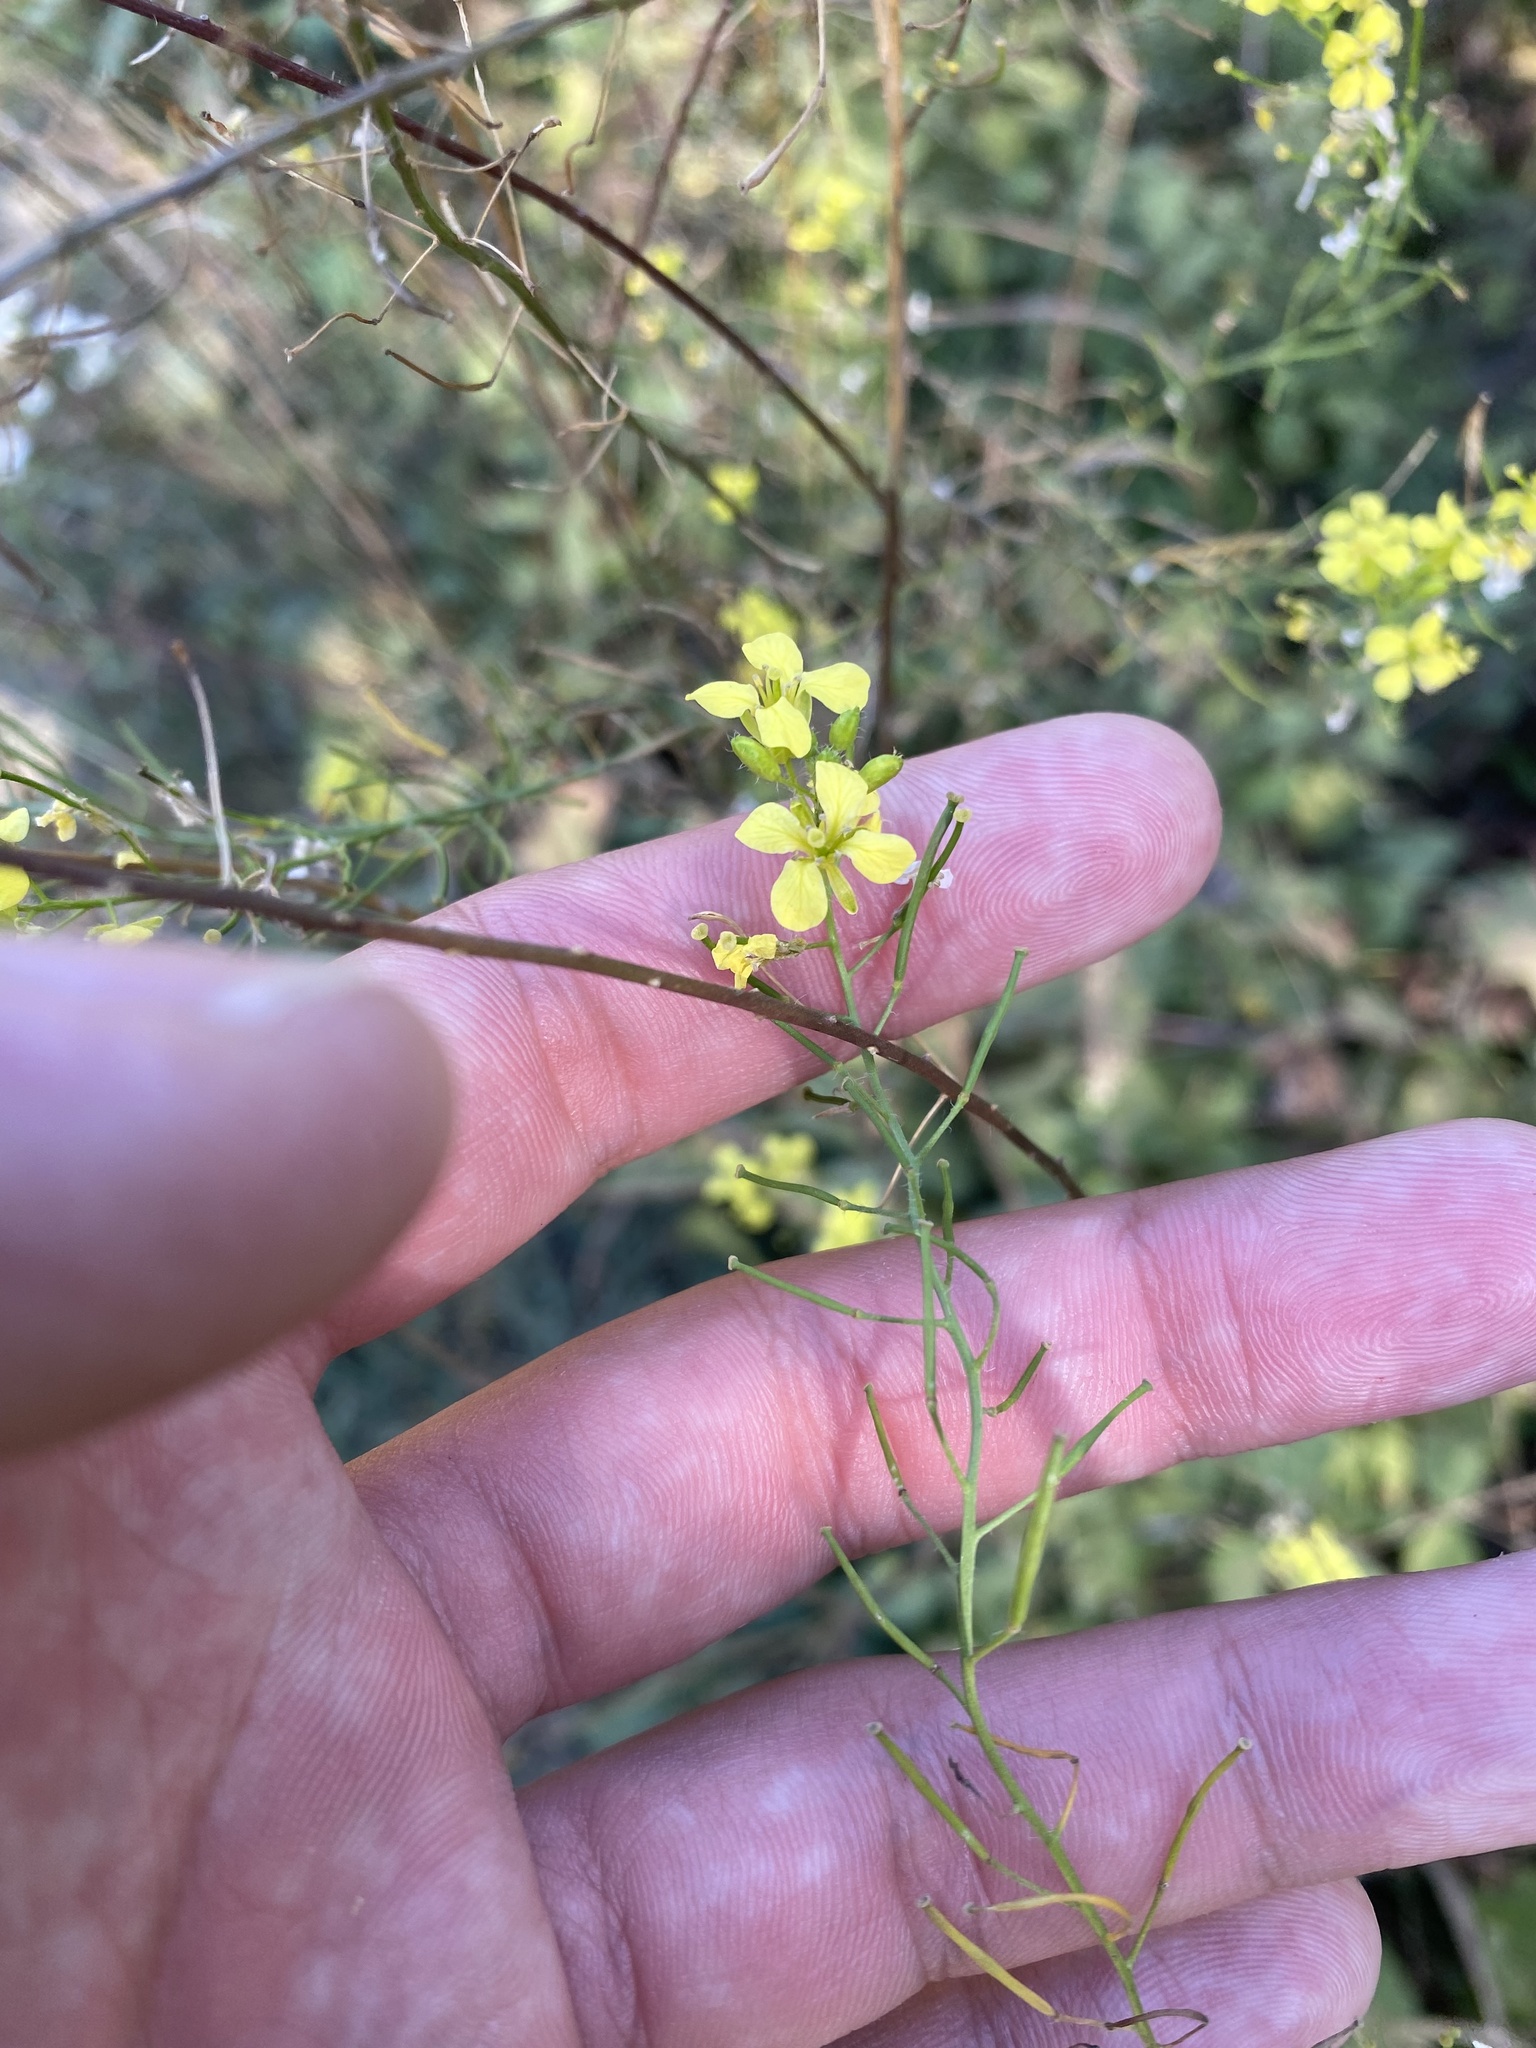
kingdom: Plantae
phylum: Tracheophyta
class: Magnoliopsida
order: Brassicales
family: Brassicaceae
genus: Sisymbrium
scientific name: Sisymbrium loeselii
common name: False london-rocket
